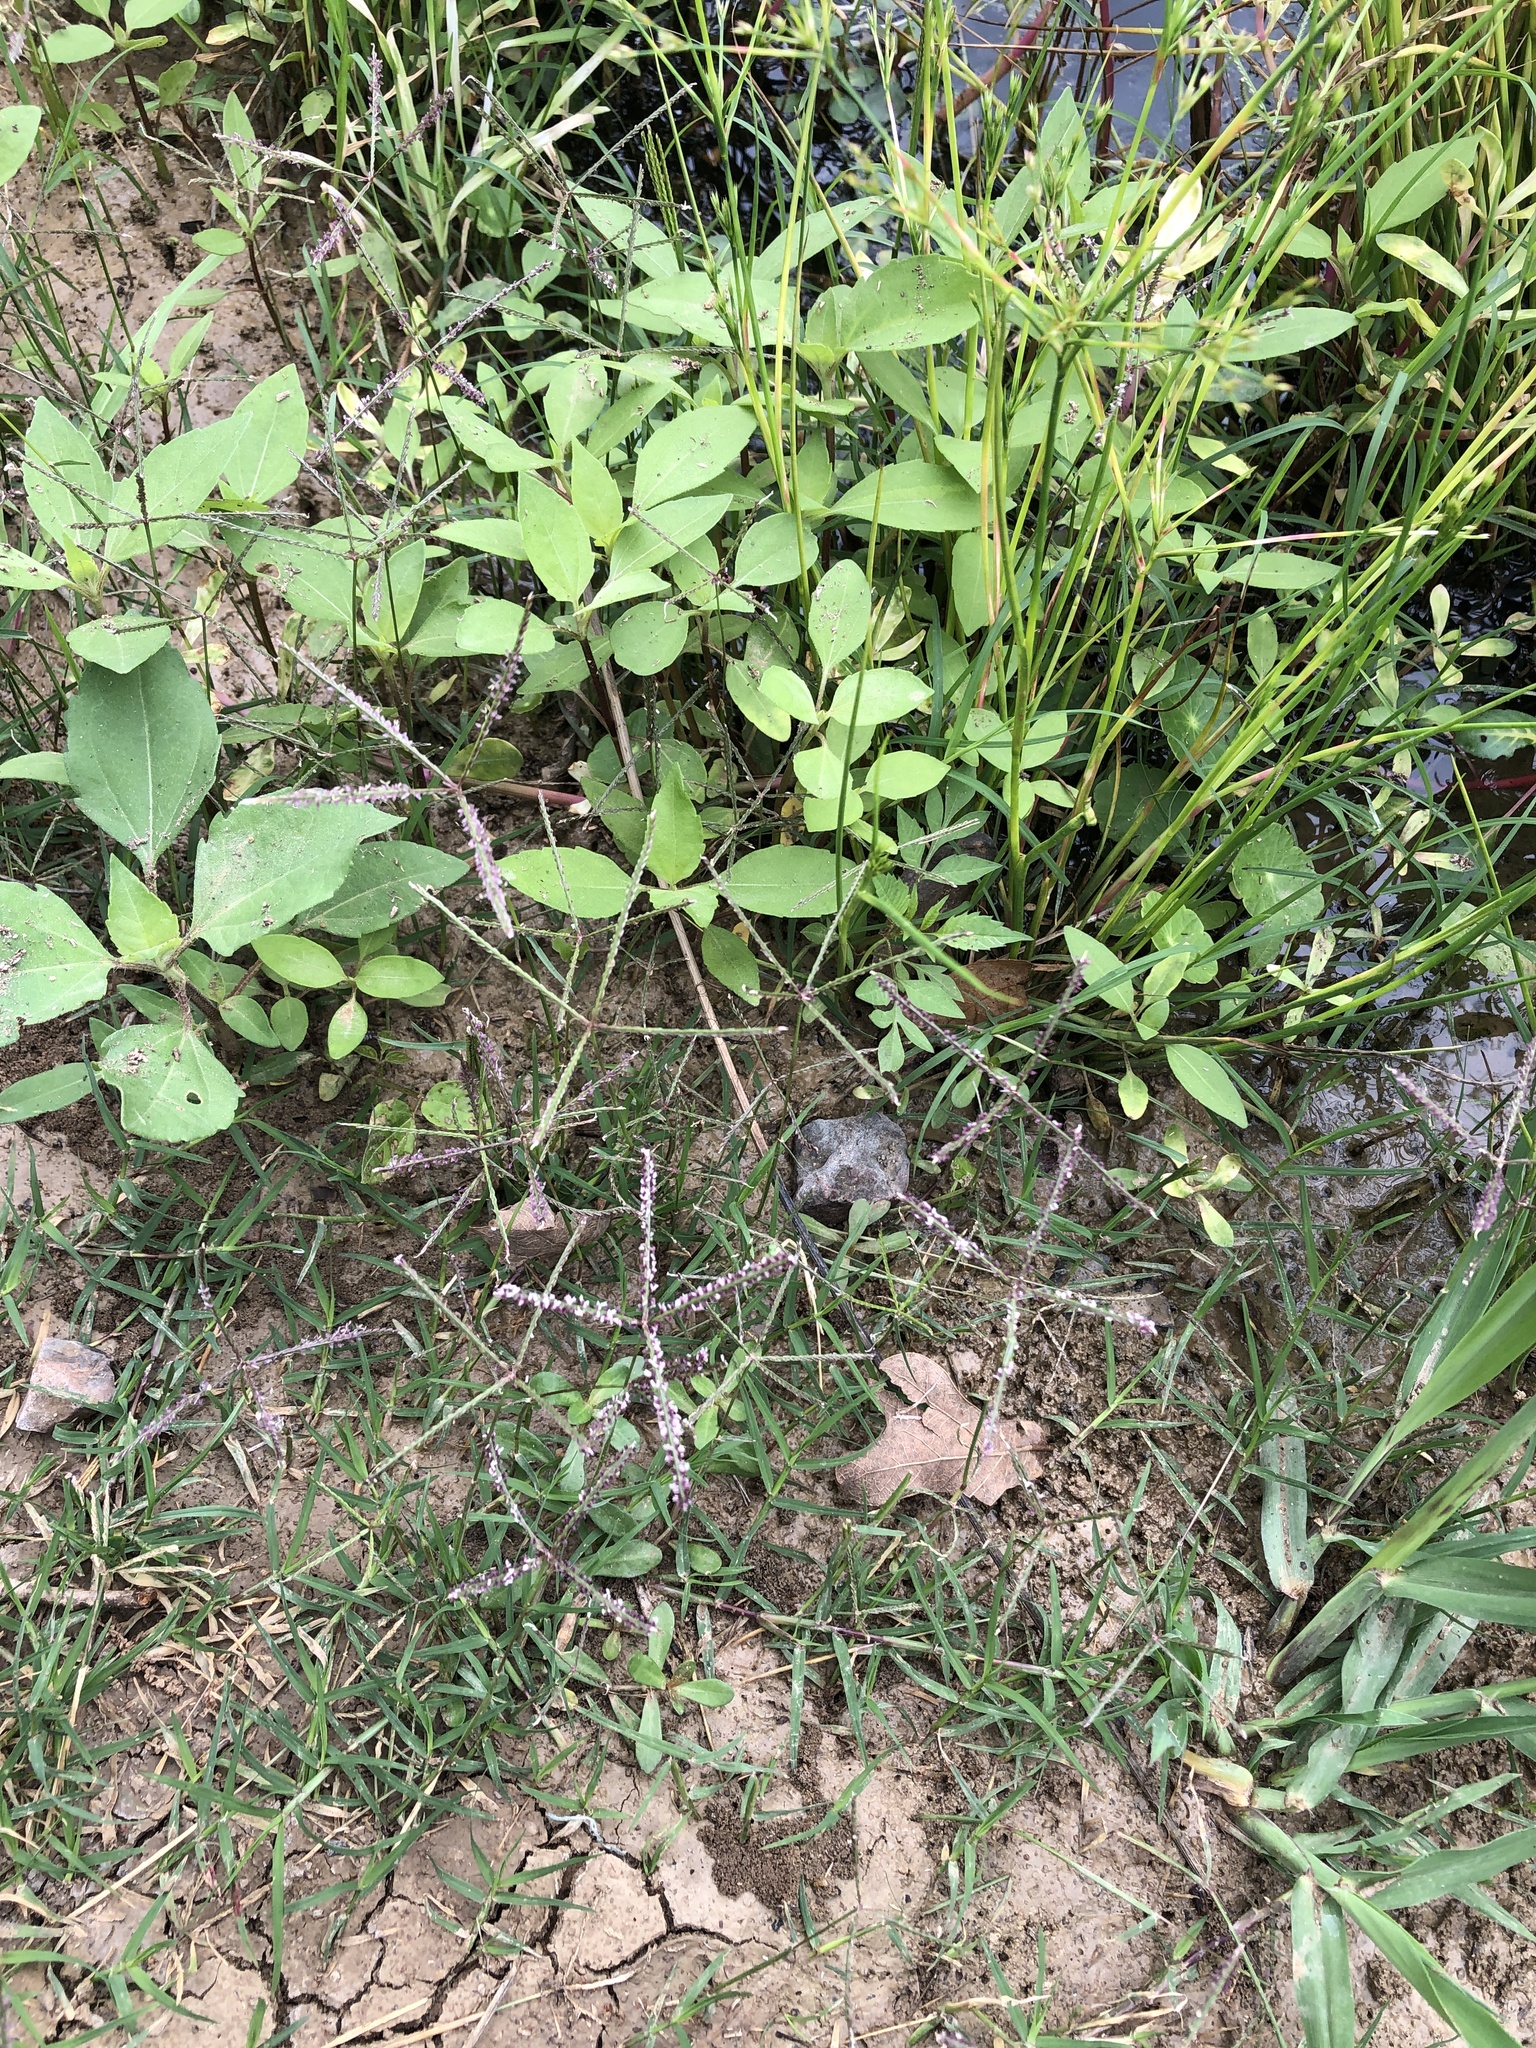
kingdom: Plantae
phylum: Tracheophyta
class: Liliopsida
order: Poales
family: Poaceae
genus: Cynodon
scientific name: Cynodon dactylon
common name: Bermuda grass
